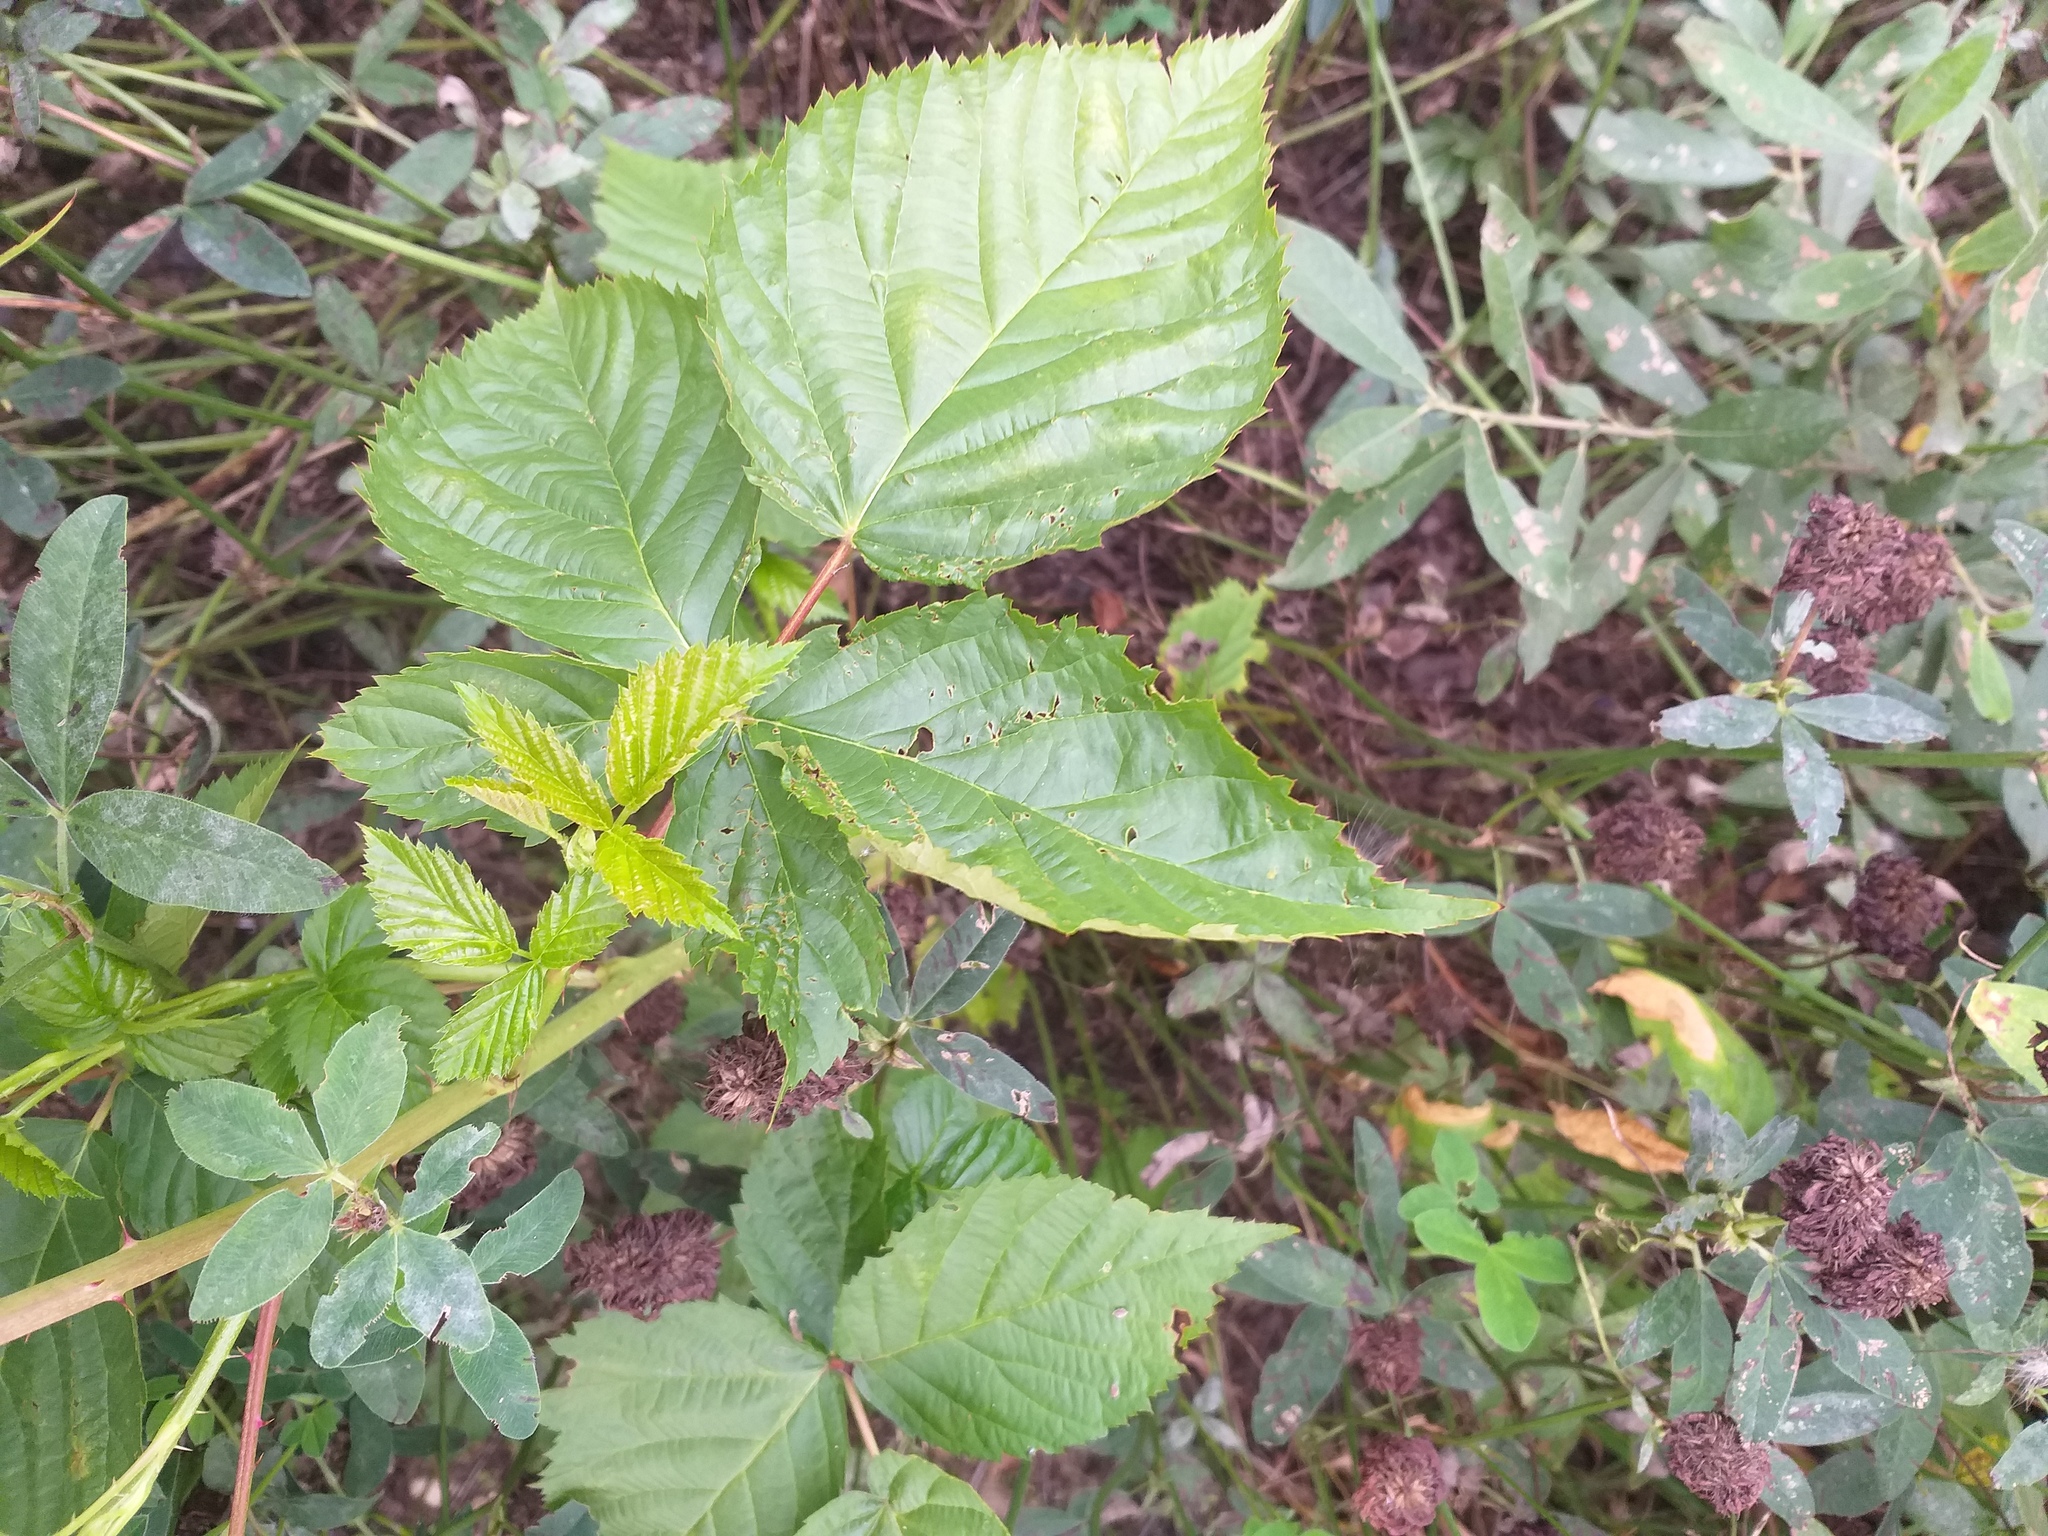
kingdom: Plantae
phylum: Tracheophyta
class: Magnoliopsida
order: Rosales
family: Rosaceae
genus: Rubus
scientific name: Rubus polonicus
